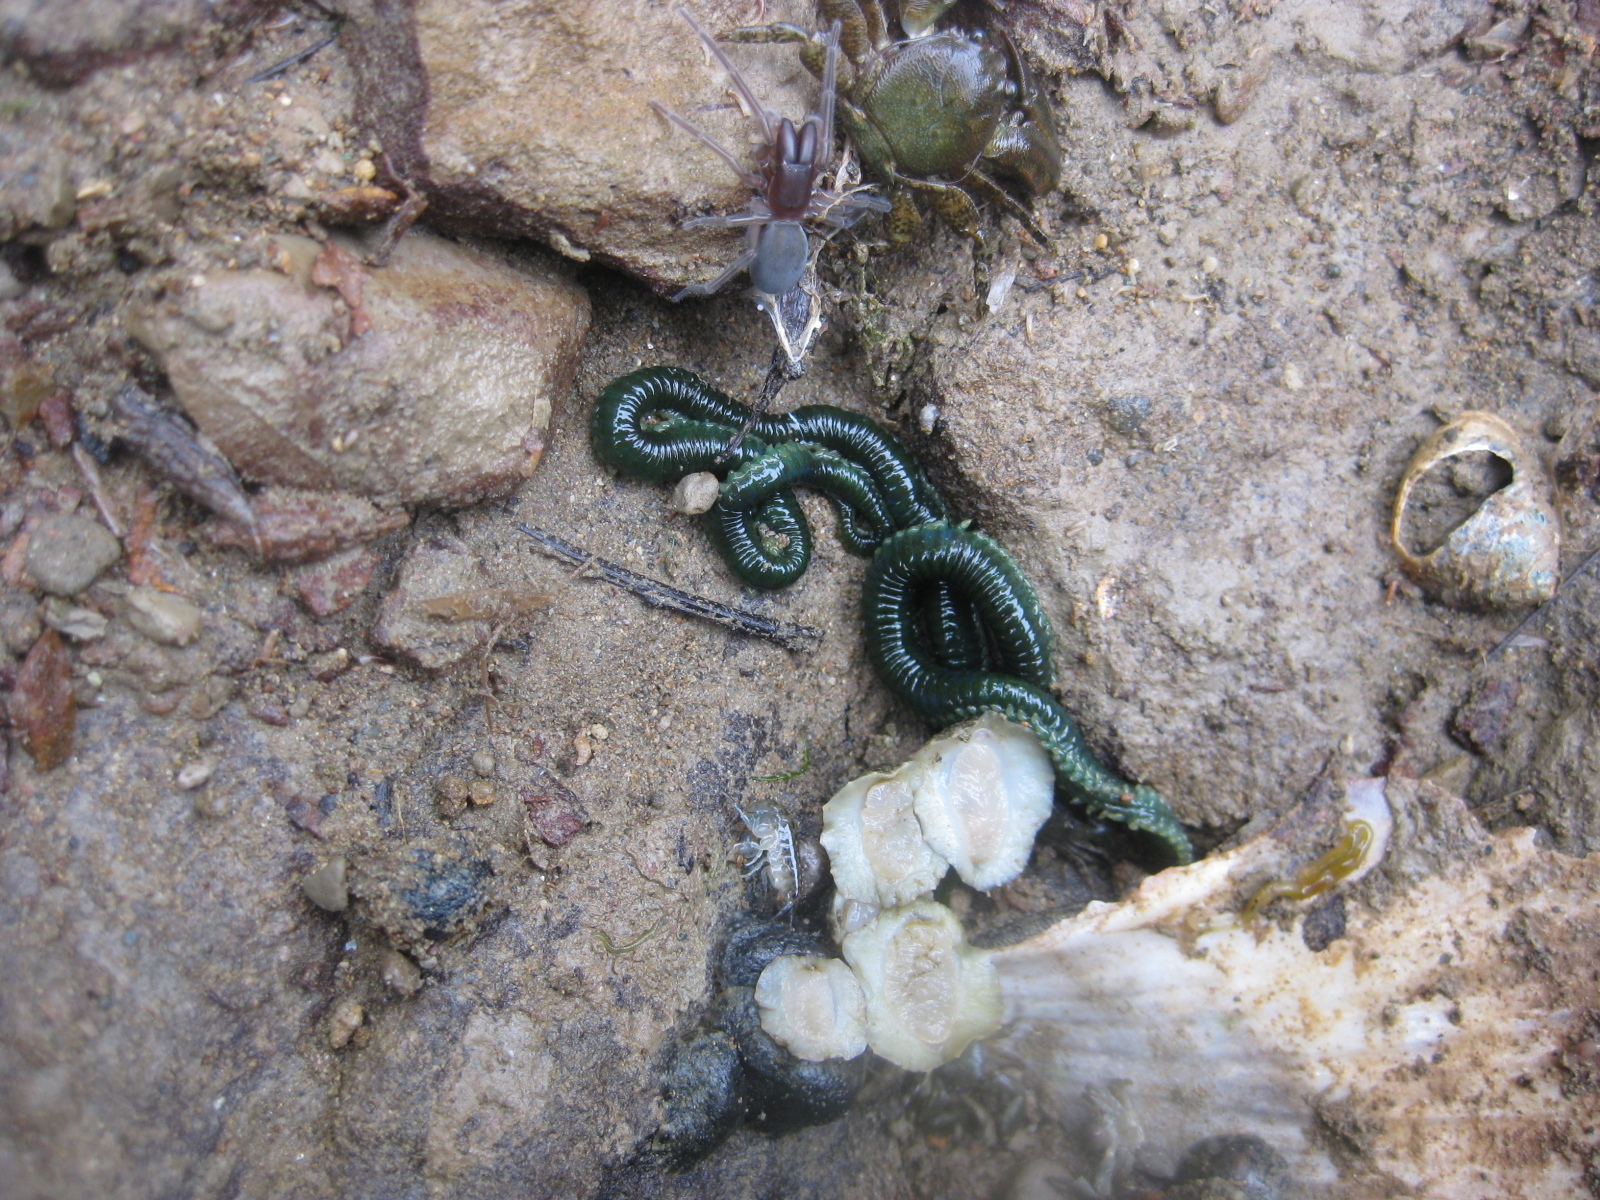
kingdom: Animalia
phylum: Arthropoda
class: Arachnida
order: Araneae
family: Desidae
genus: Desis
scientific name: Desis marina
